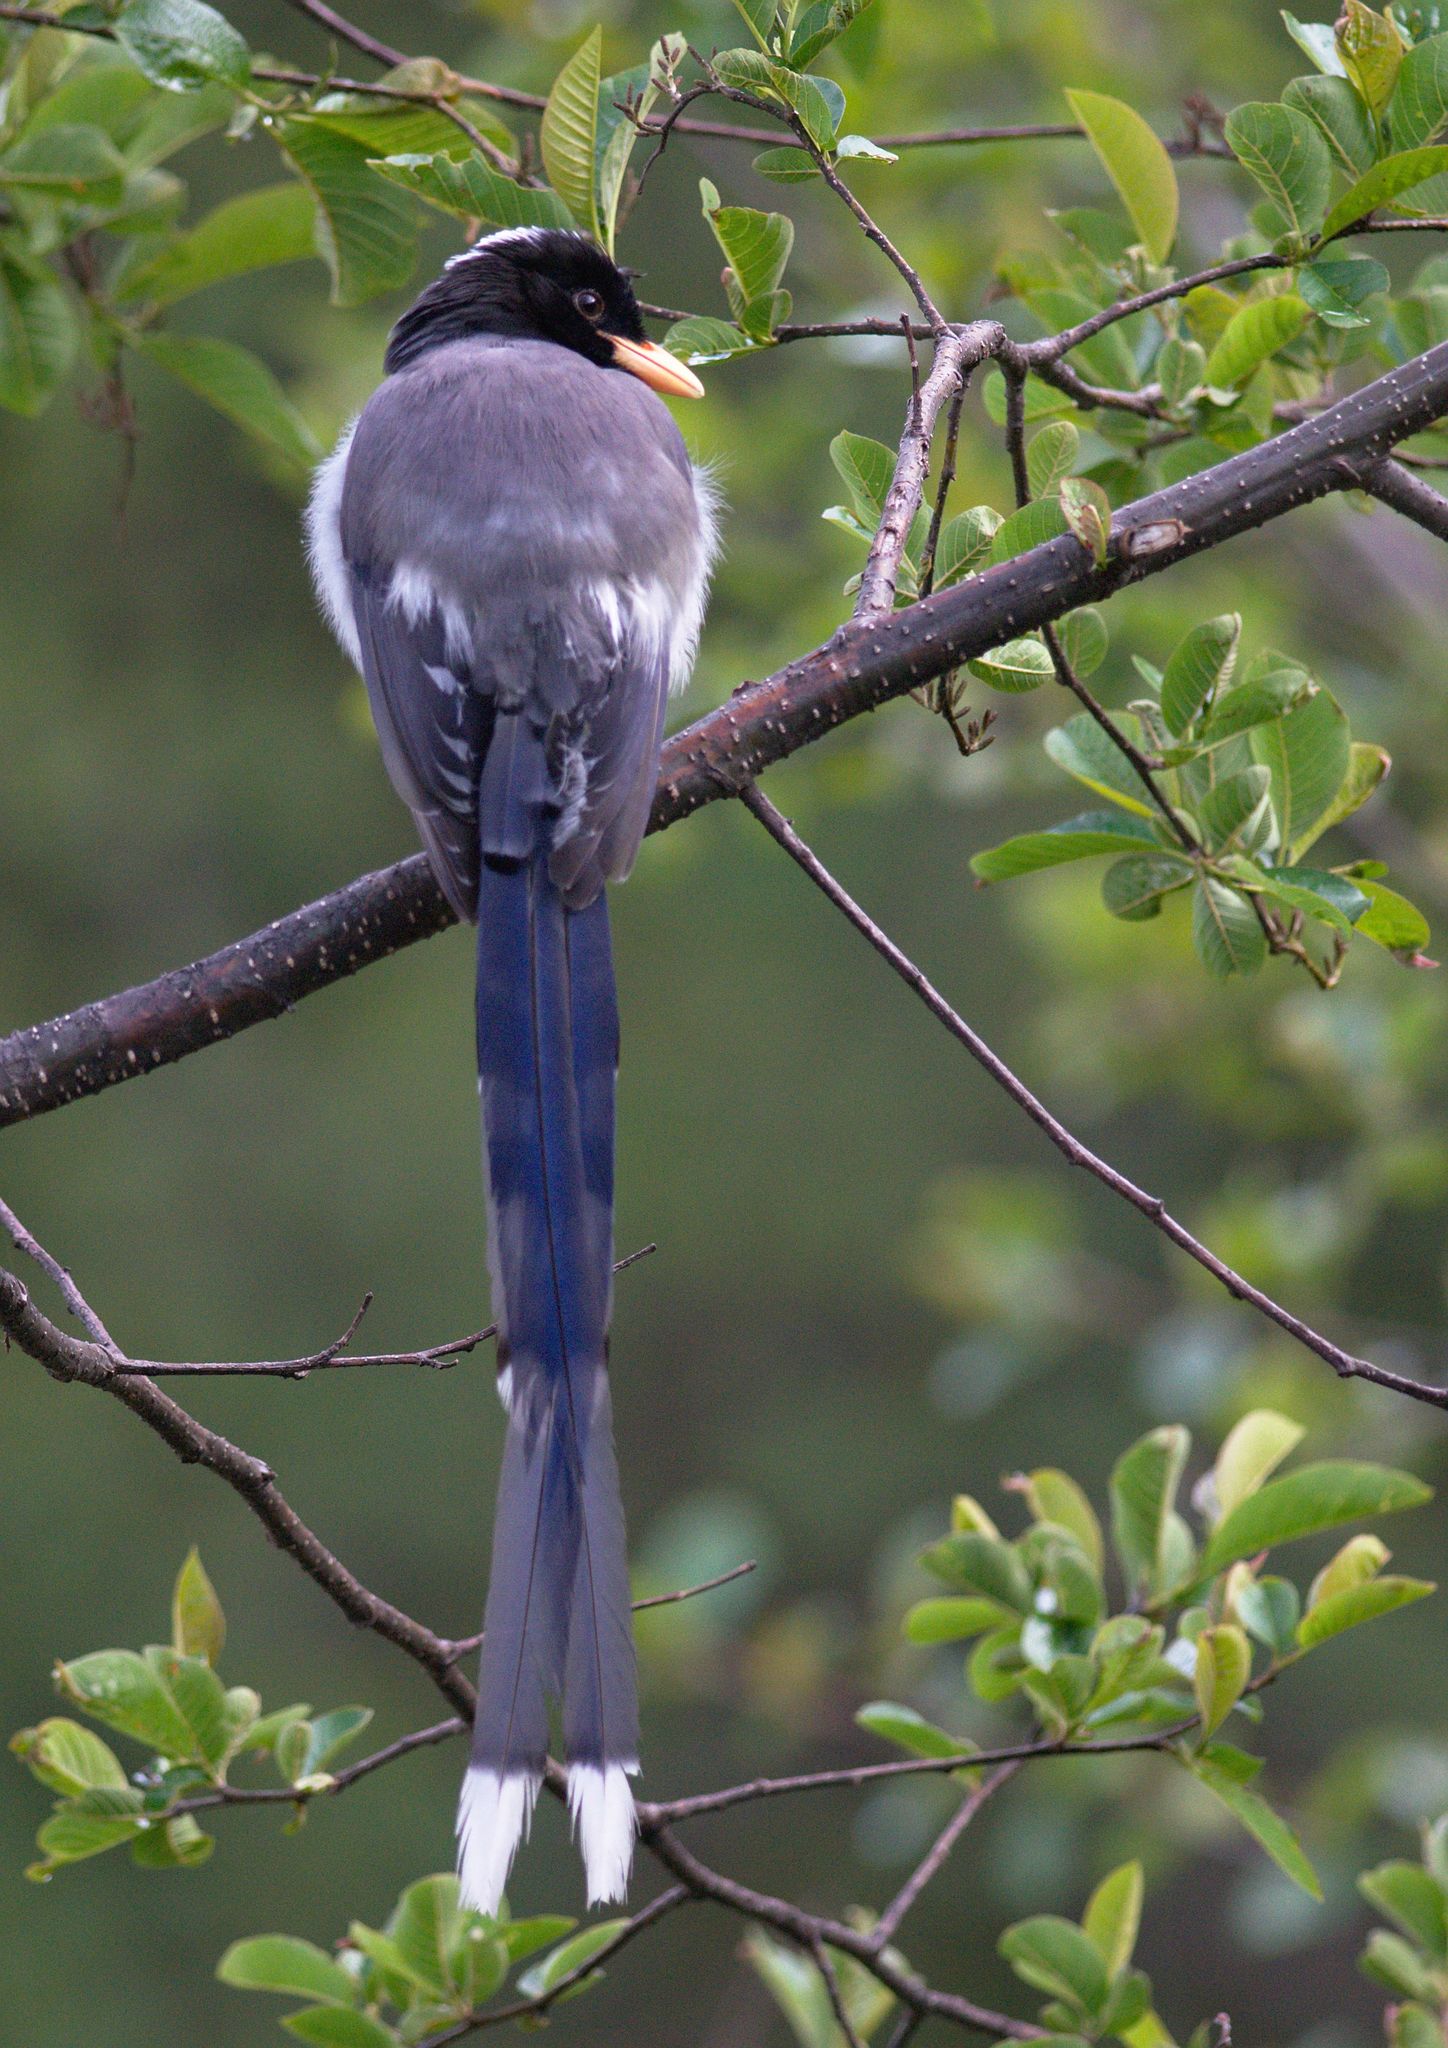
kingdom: Animalia
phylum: Chordata
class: Aves
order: Passeriformes
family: Corvidae
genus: Urocissa
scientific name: Urocissa flavirostris
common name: Yellow-billed blue magpie
